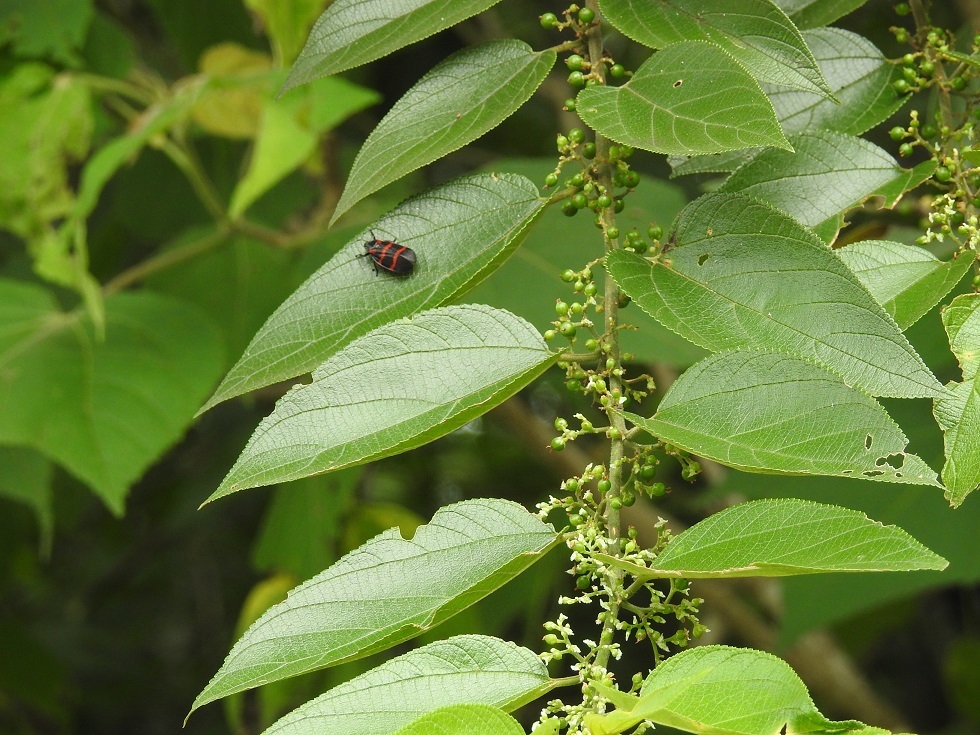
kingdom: Plantae
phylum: Tracheophyta
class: Magnoliopsida
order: Rosales
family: Cannabaceae
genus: Trema
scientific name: Trema micranthum
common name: Jamaican nettletree
